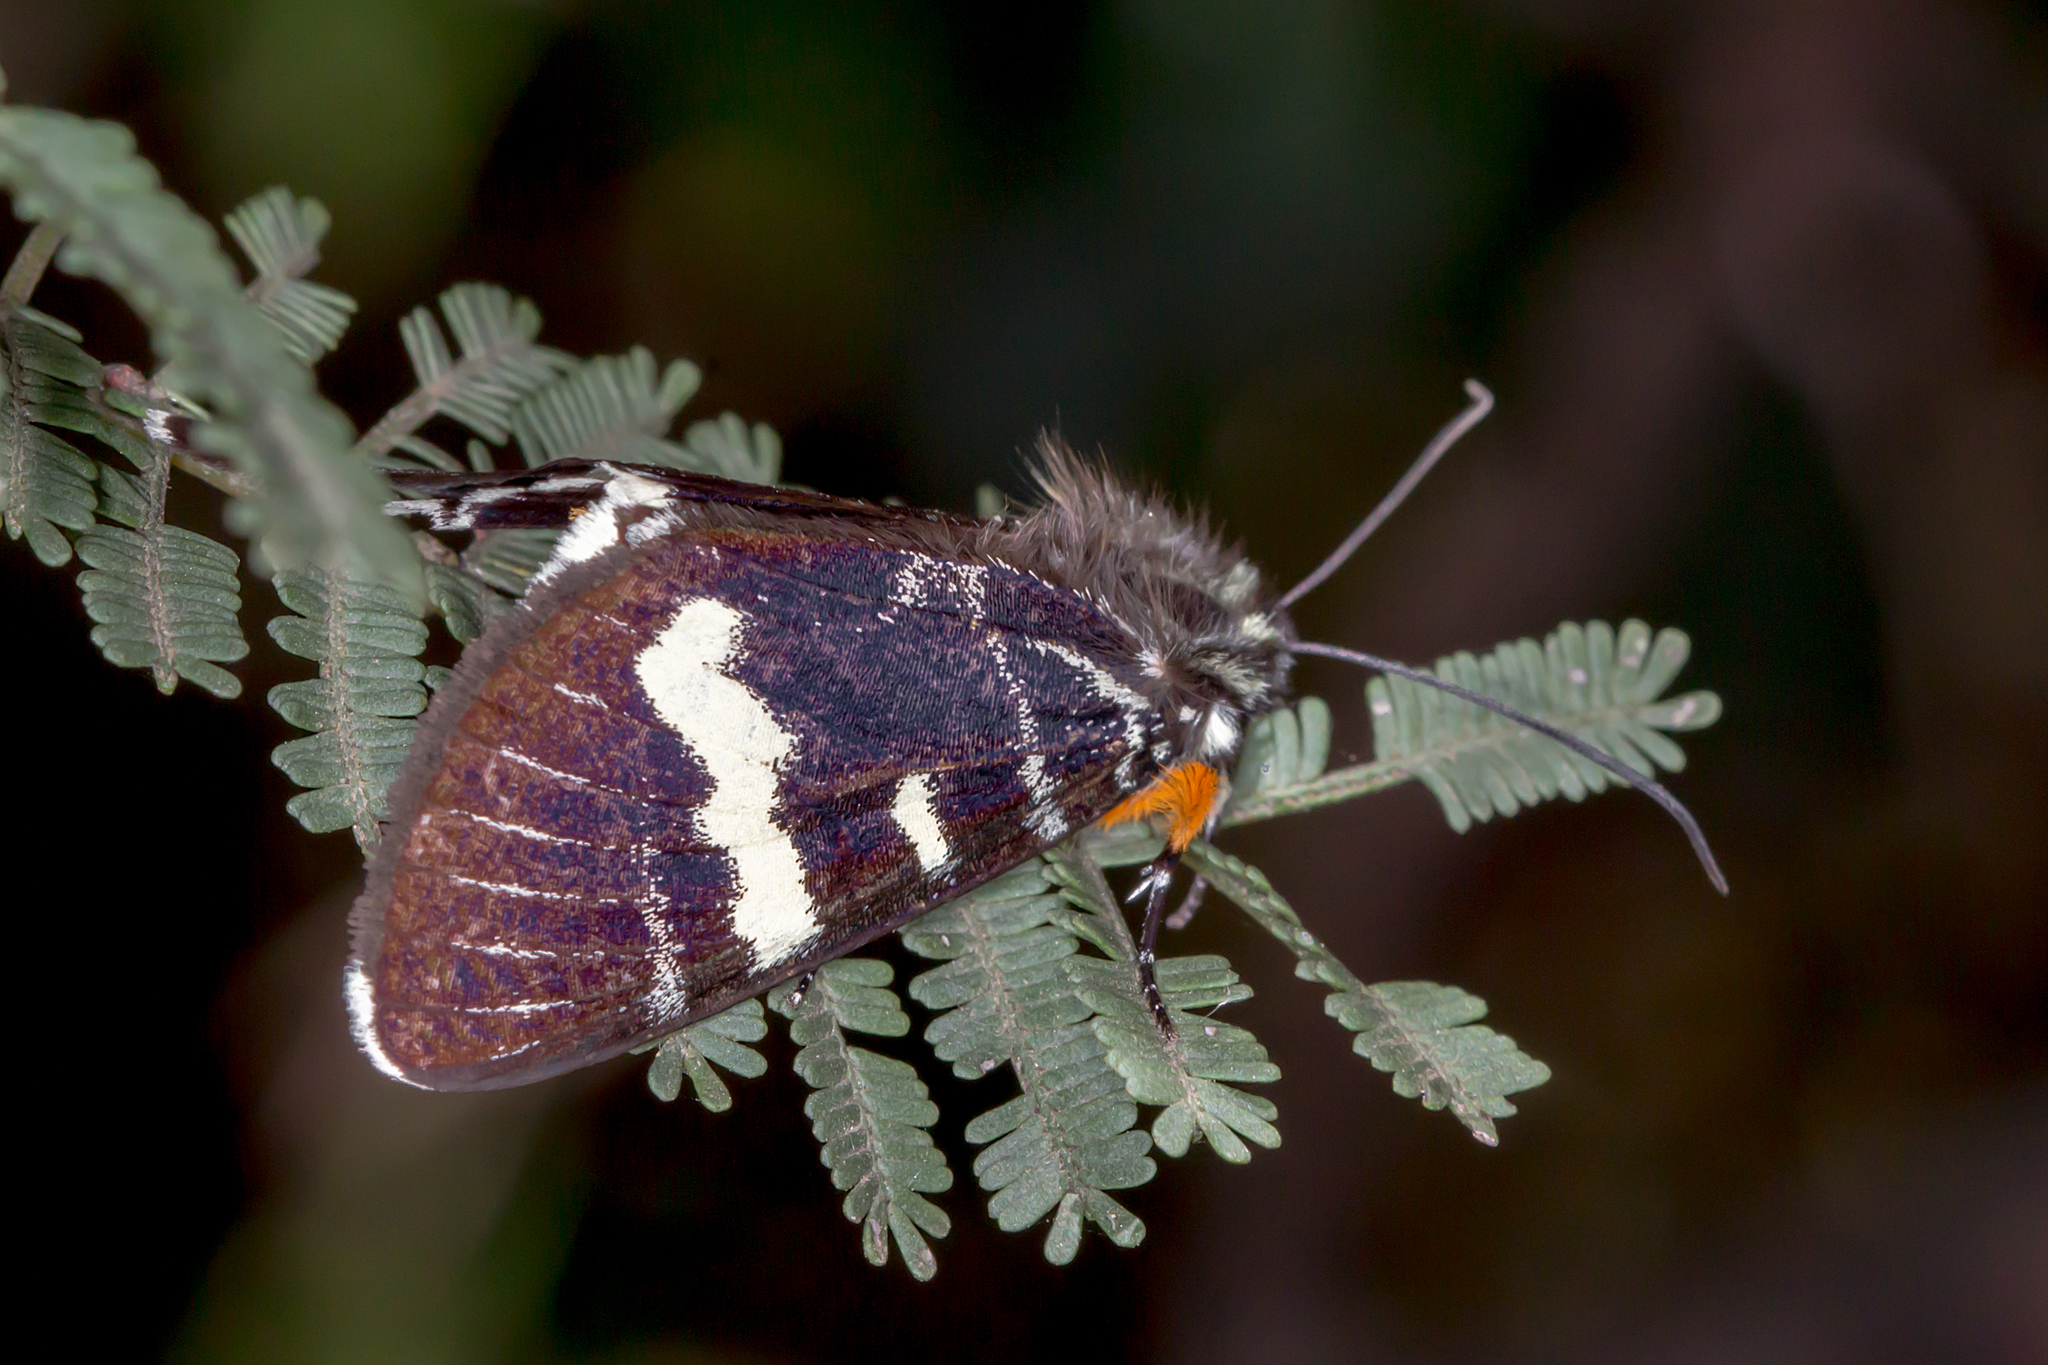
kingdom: Animalia
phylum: Arthropoda
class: Insecta
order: Lepidoptera
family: Noctuidae
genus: Phalaenoides
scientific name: Phalaenoides glycinae
